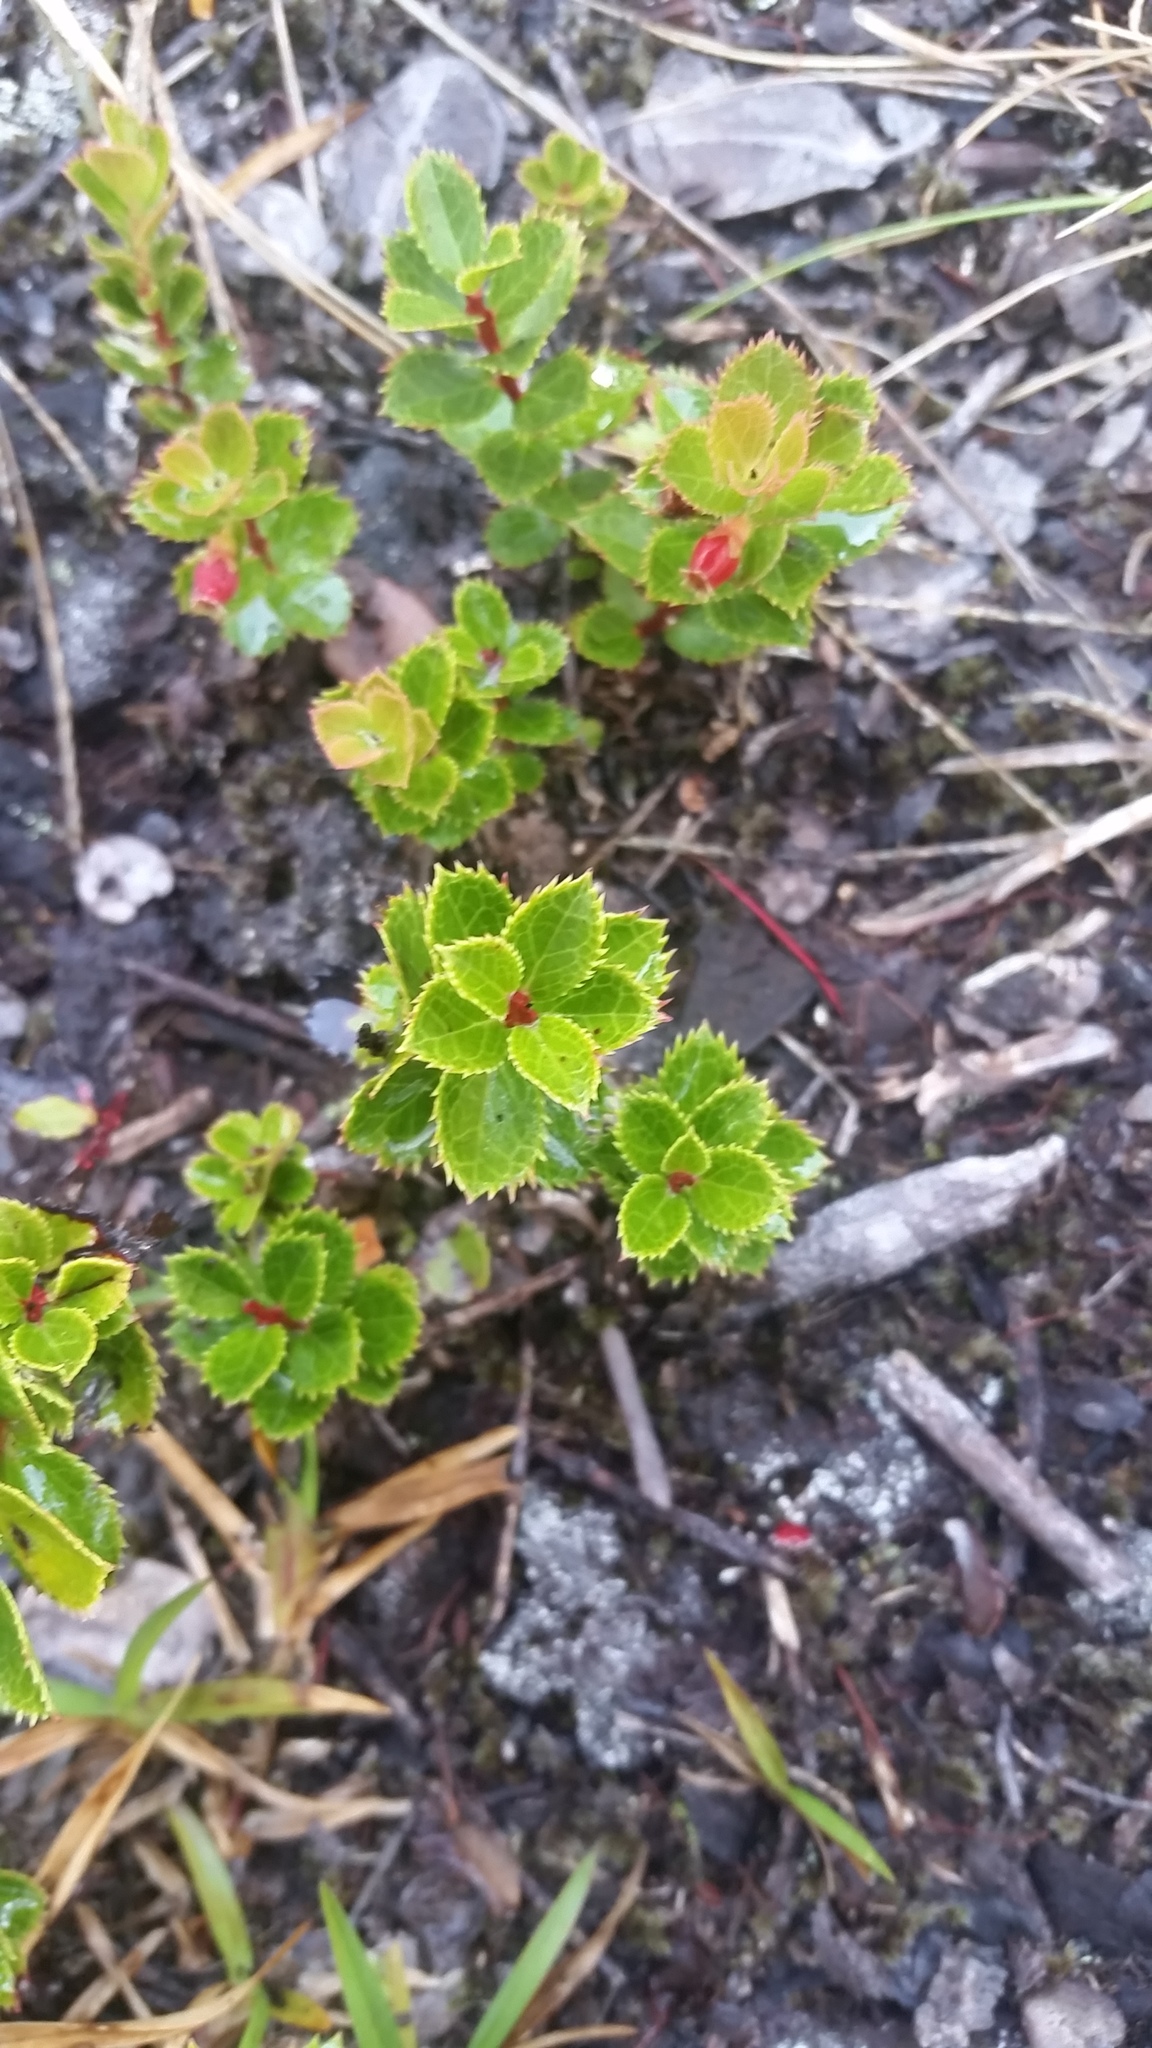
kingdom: Plantae
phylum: Tracheophyta
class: Magnoliopsida
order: Ericales
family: Ericaceae
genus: Vaccinium
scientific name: Vaccinium reticulatum
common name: Ohelo
